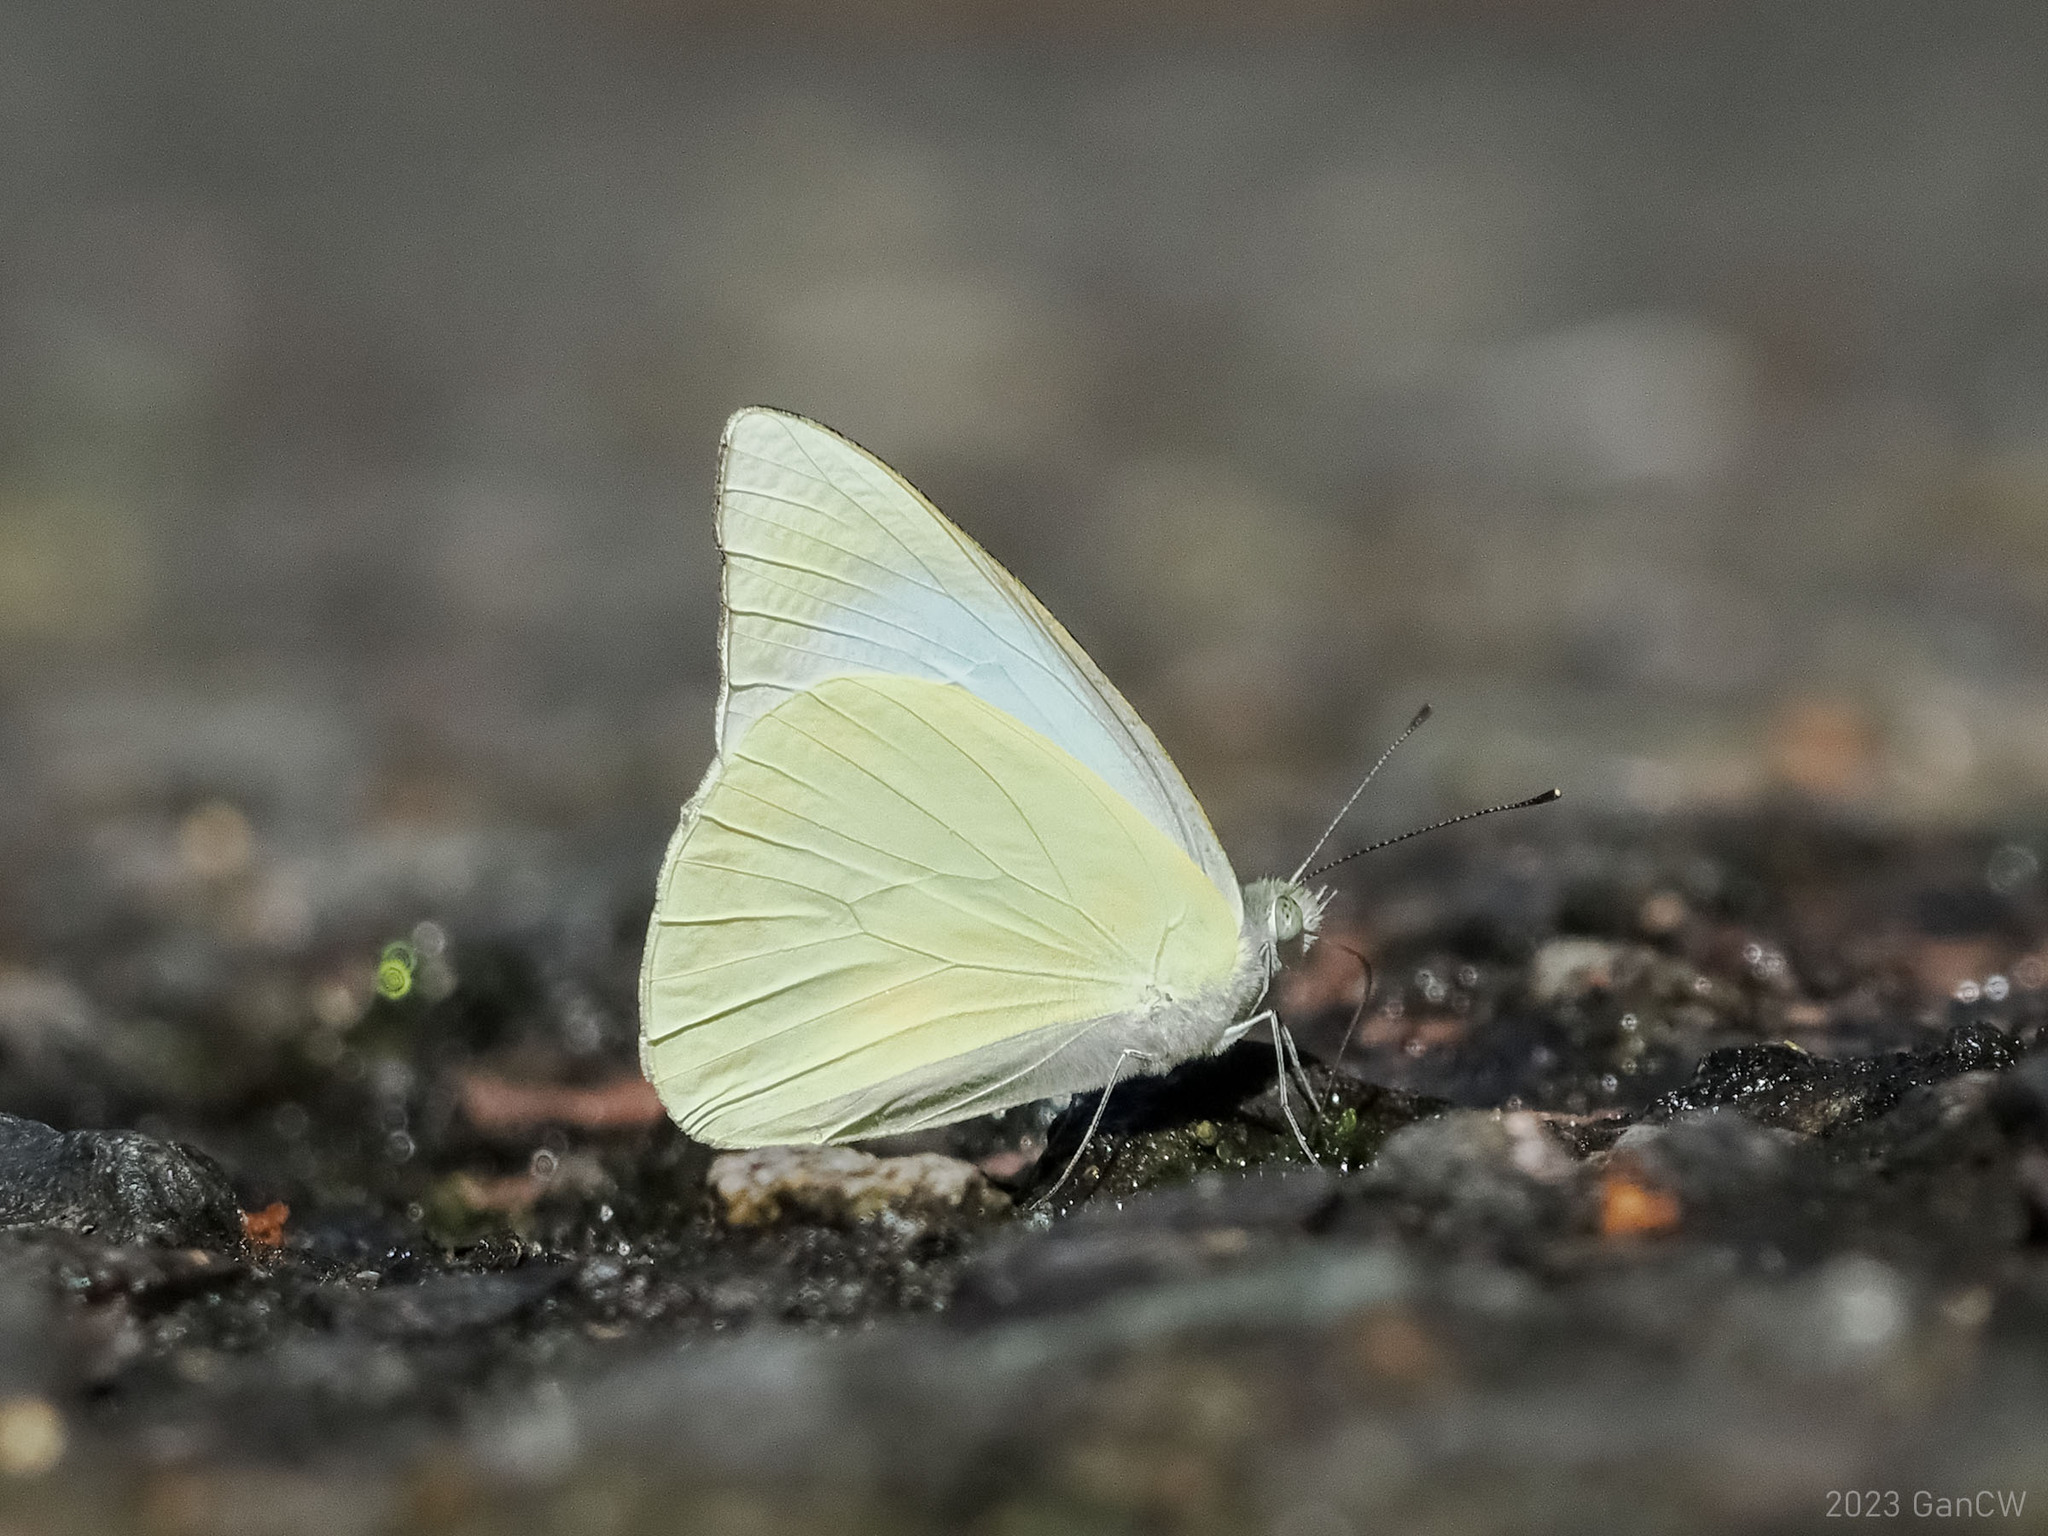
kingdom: Animalia
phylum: Arthropoda
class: Insecta
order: Lepidoptera
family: Pieridae
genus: Appias
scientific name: Appias albina
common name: Common albatross
